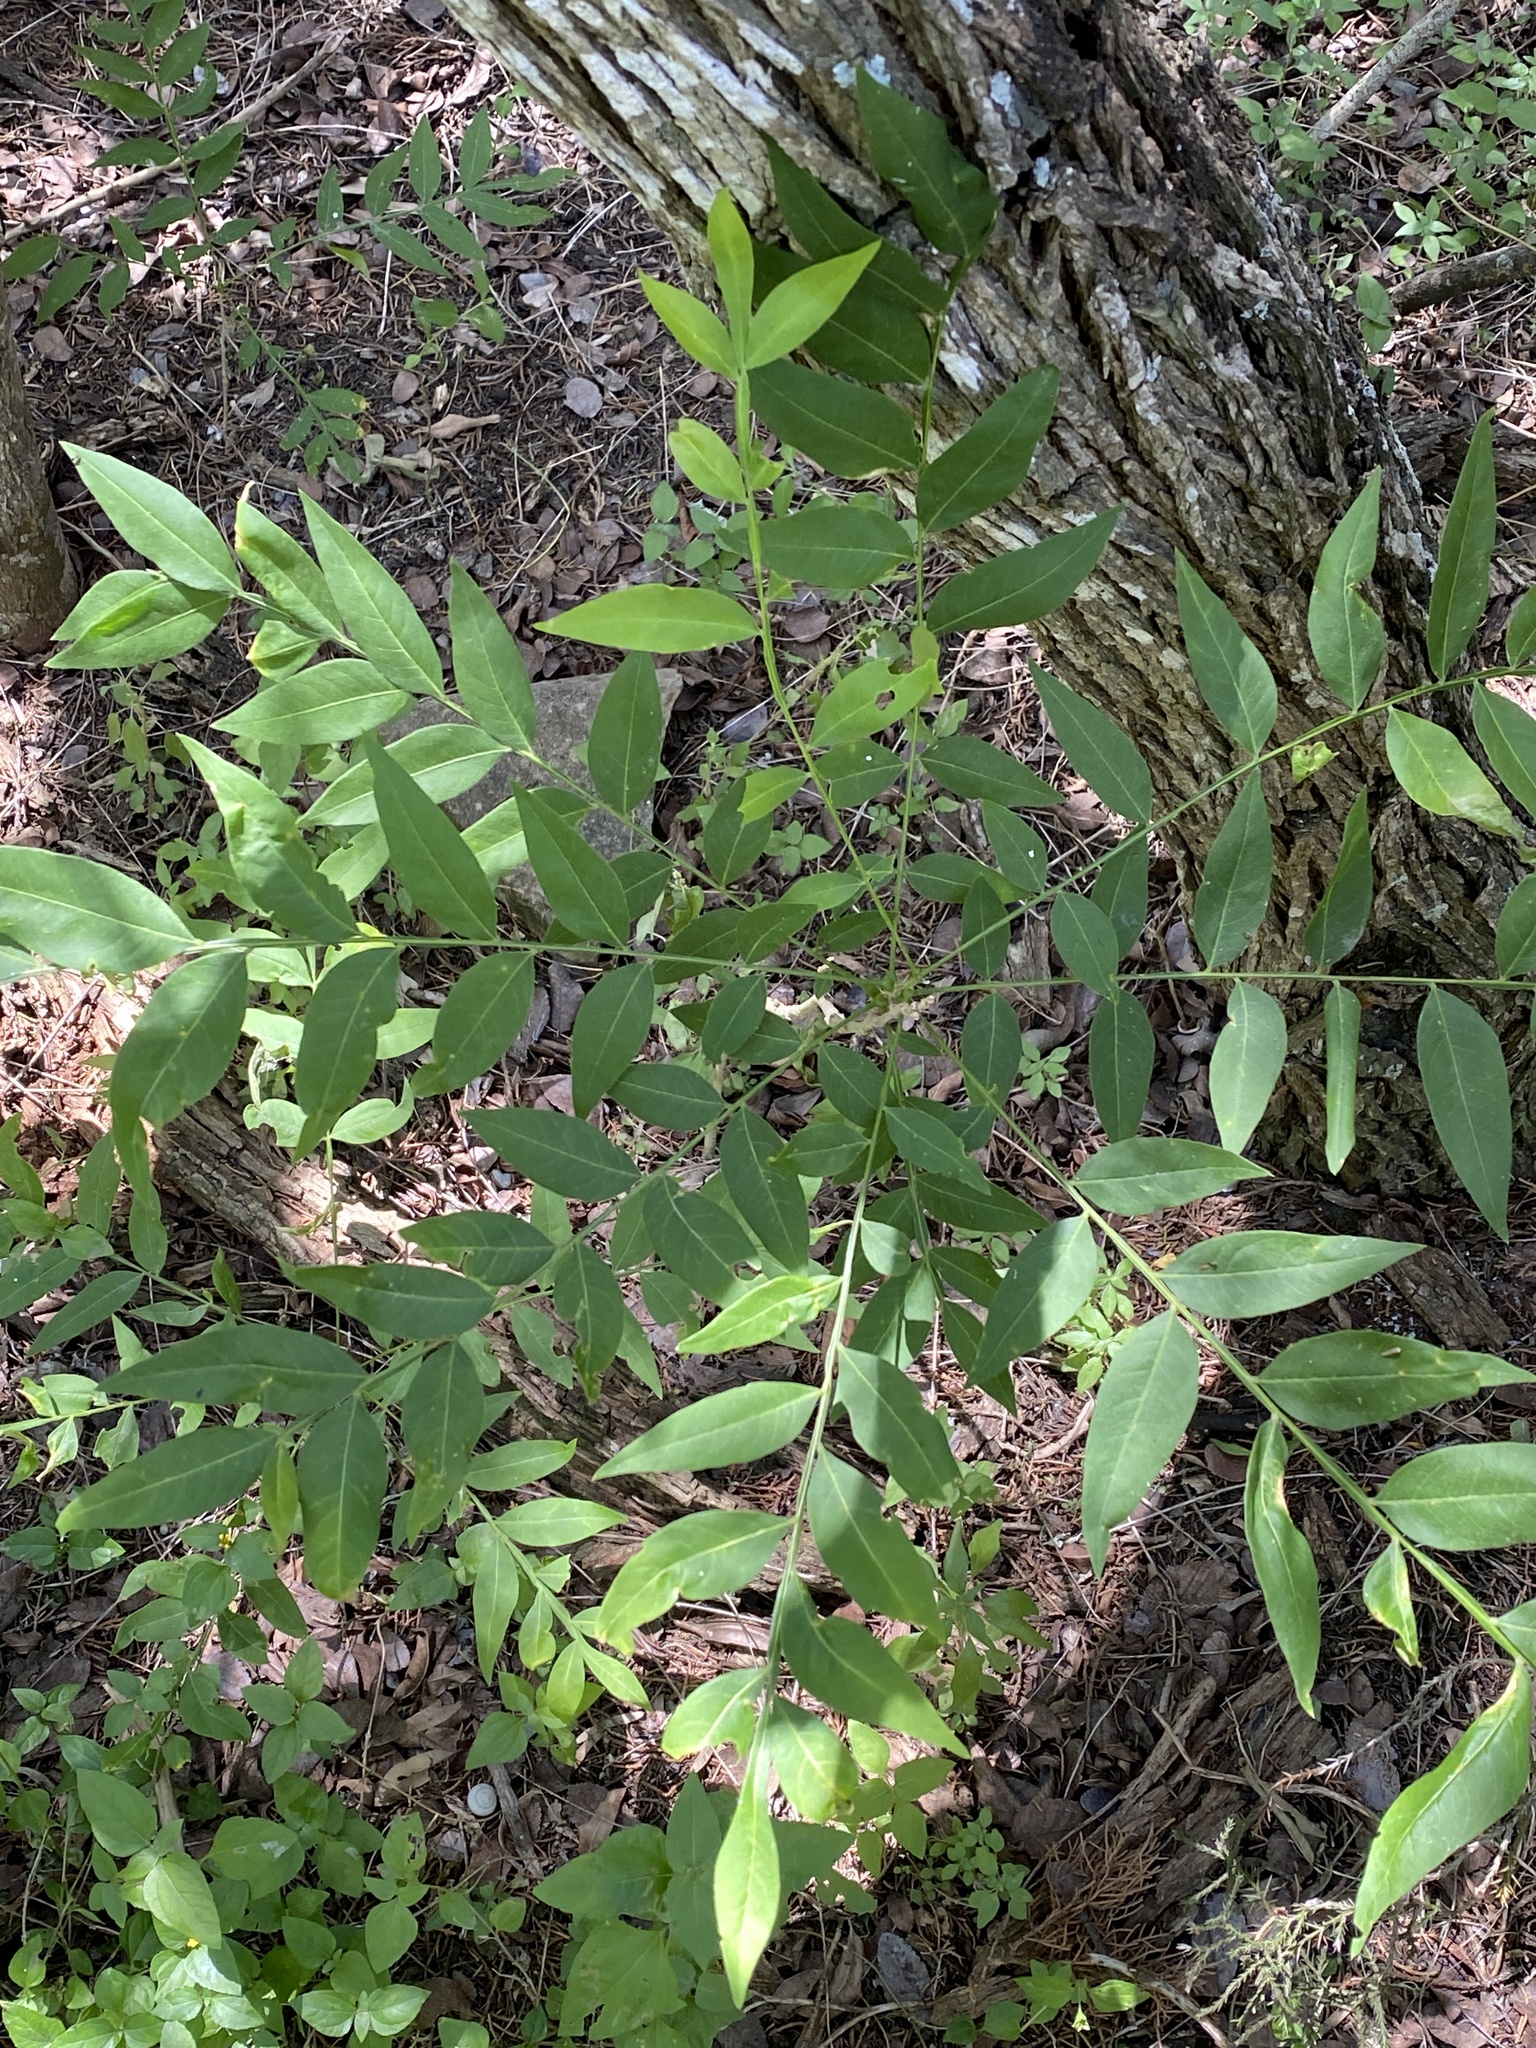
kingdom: Plantae
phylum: Tracheophyta
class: Magnoliopsida
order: Sapindales
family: Sapindaceae
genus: Sapindus
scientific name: Sapindus drummondii
